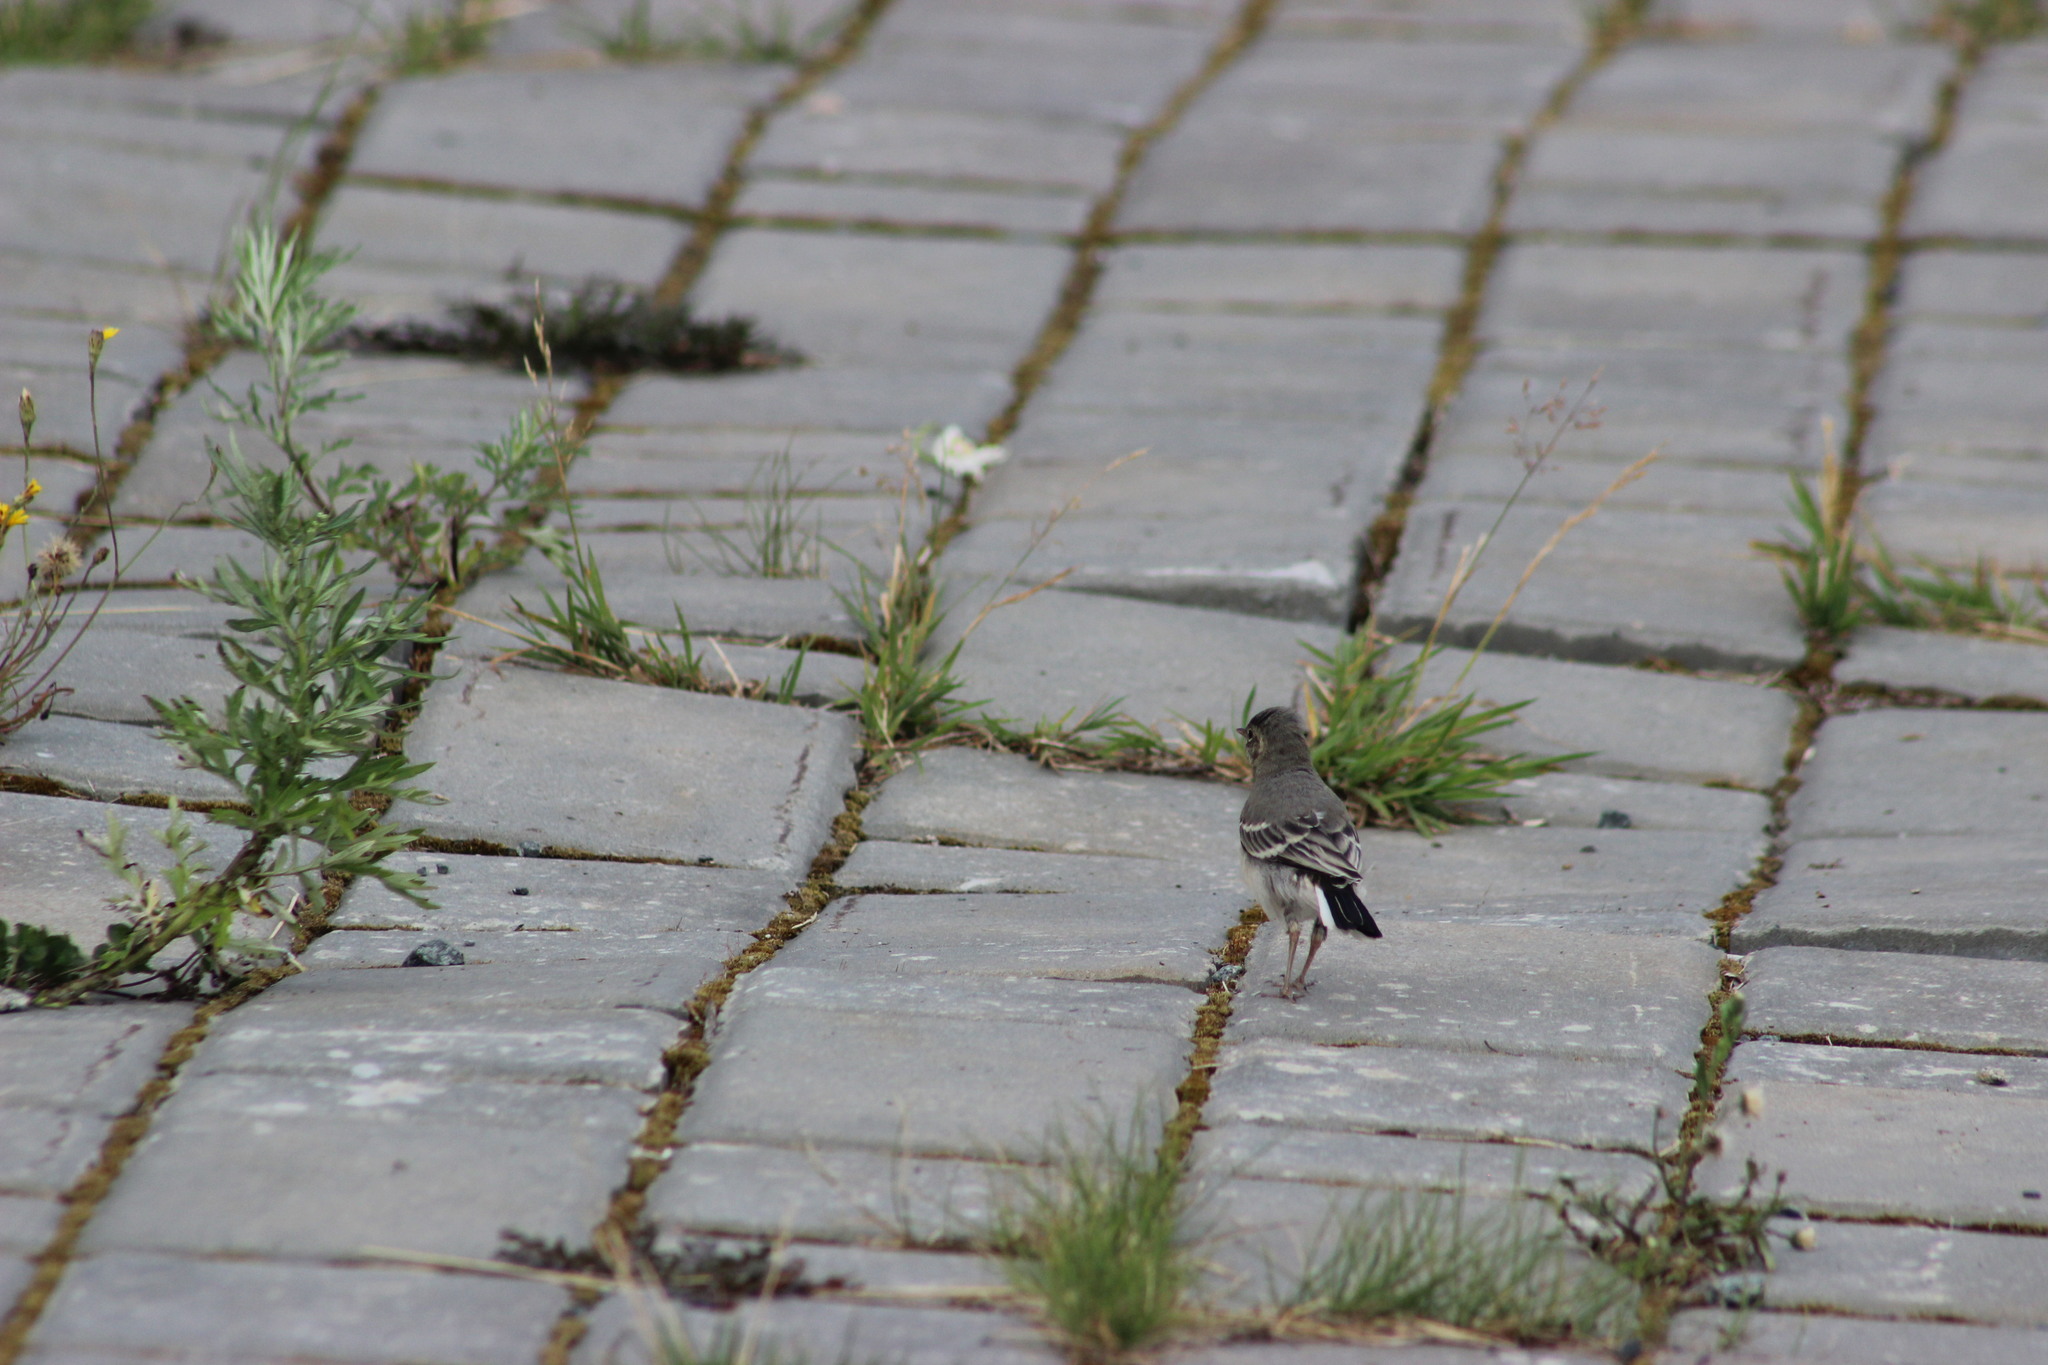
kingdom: Animalia
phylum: Chordata
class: Aves
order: Passeriformes
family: Motacillidae
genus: Motacilla
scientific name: Motacilla alba
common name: White wagtail
